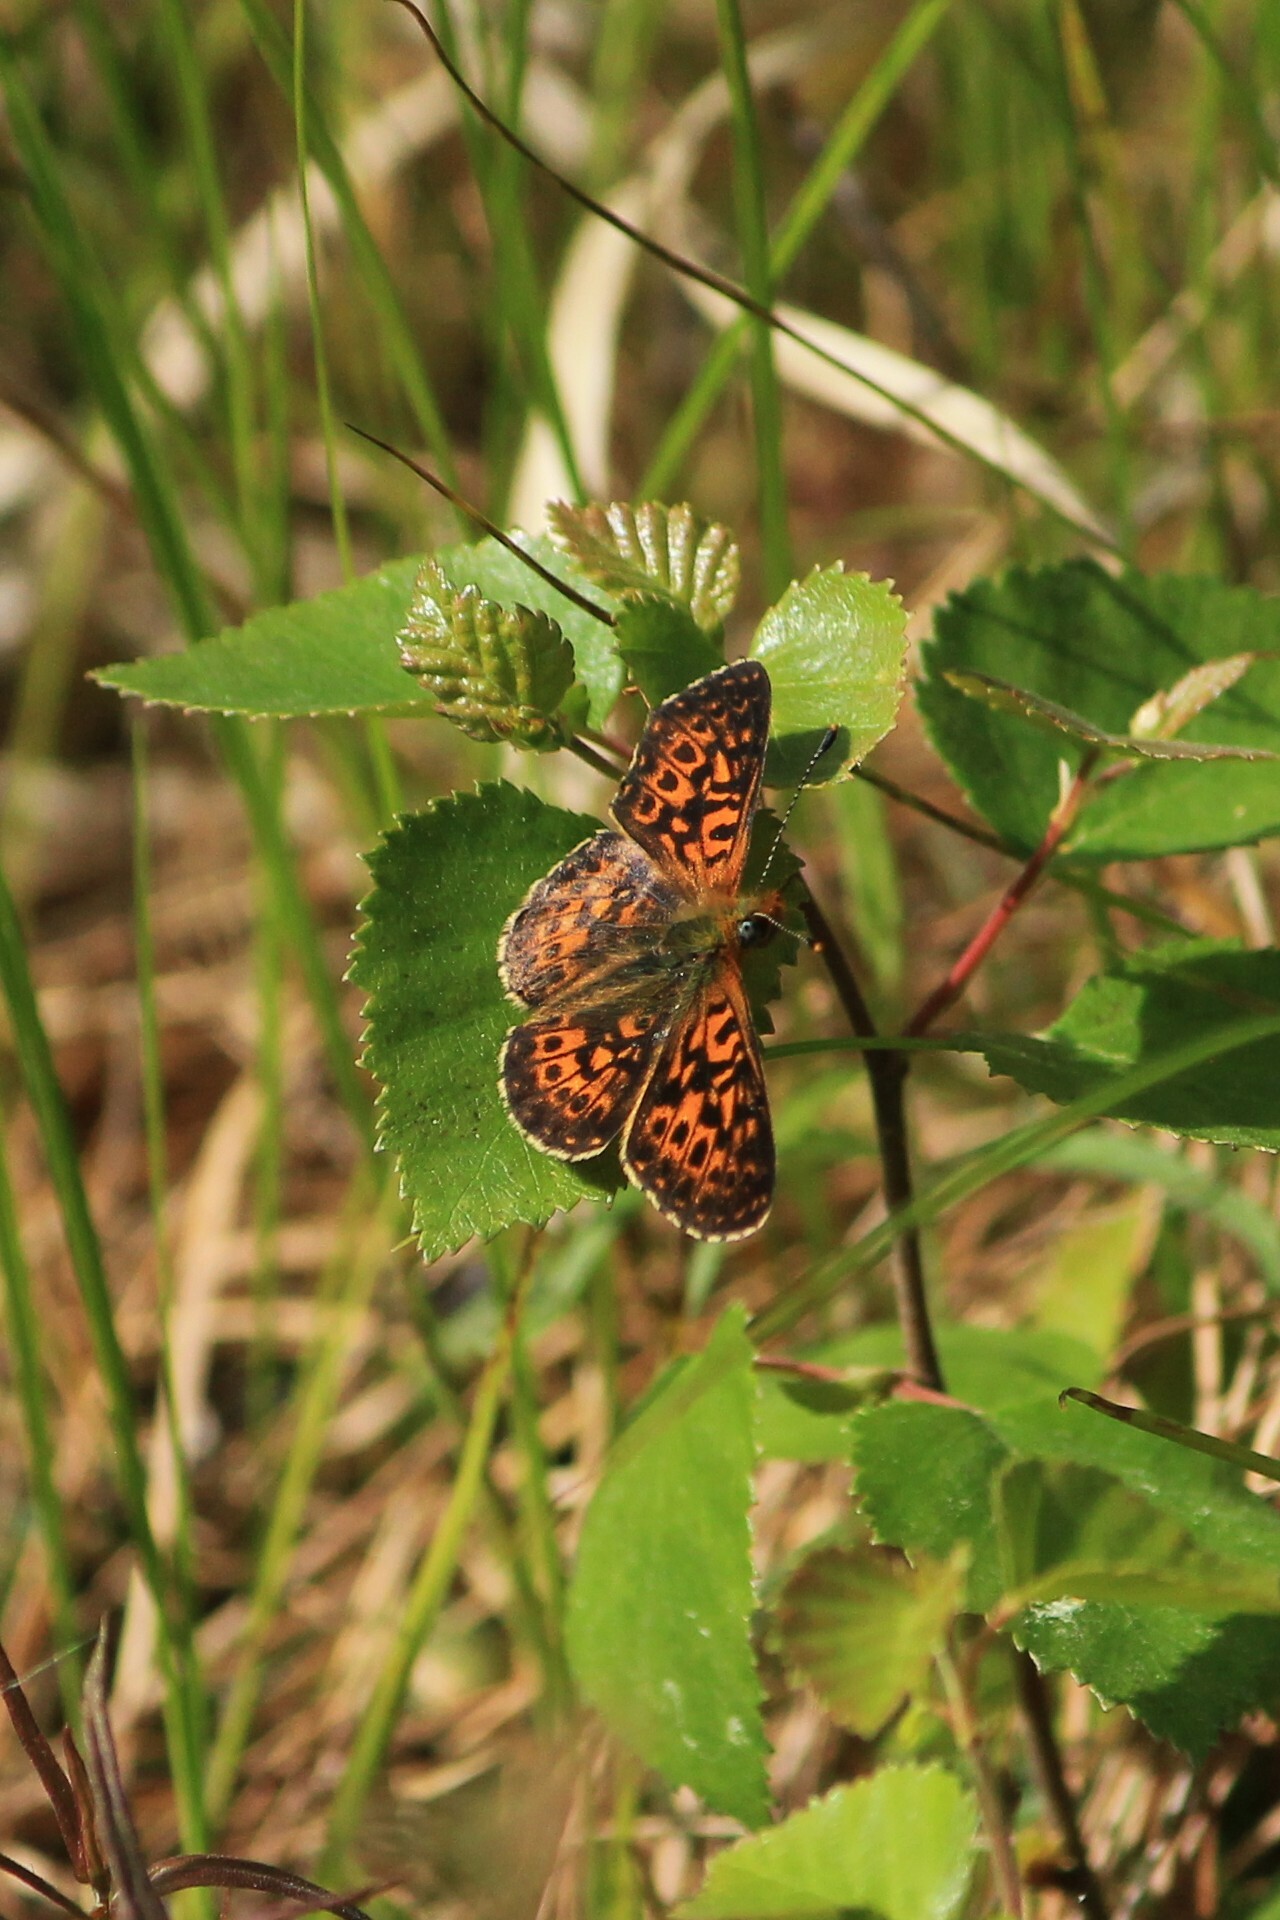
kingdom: Animalia
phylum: Arthropoda
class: Insecta
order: Lepidoptera
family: Nymphalidae
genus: Clossiana
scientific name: Clossiana euphrosyne
